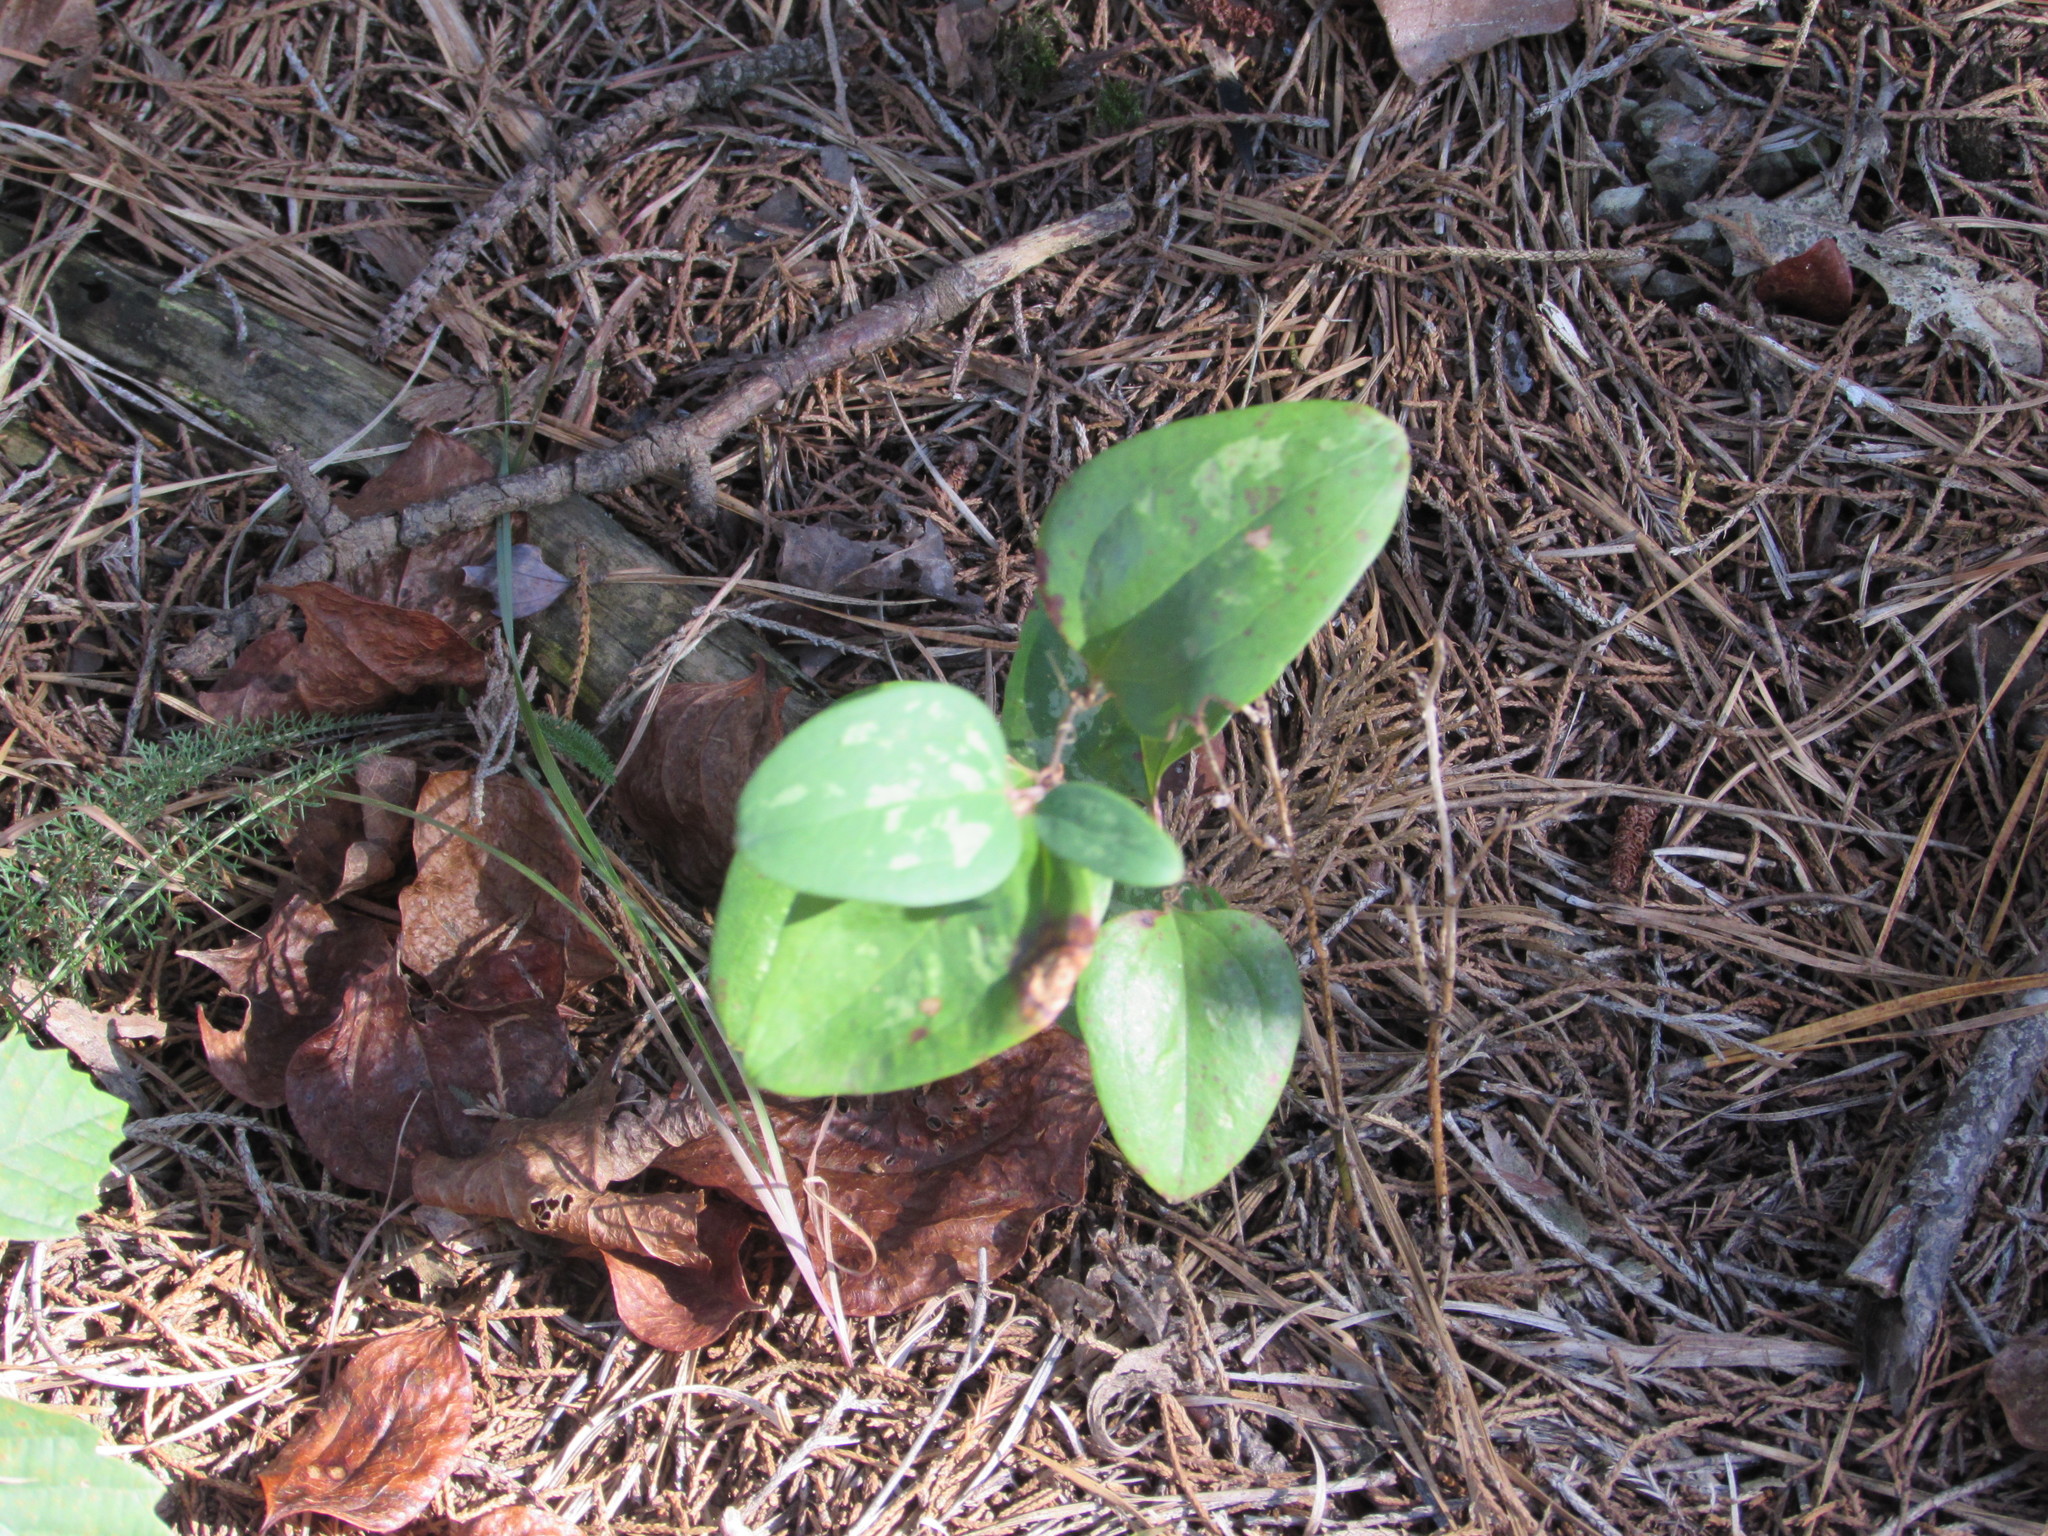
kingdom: Plantae
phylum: Tracheophyta
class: Liliopsida
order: Liliales
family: Smilacaceae
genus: Smilax
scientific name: Smilax glauca
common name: Cat greenbrier
